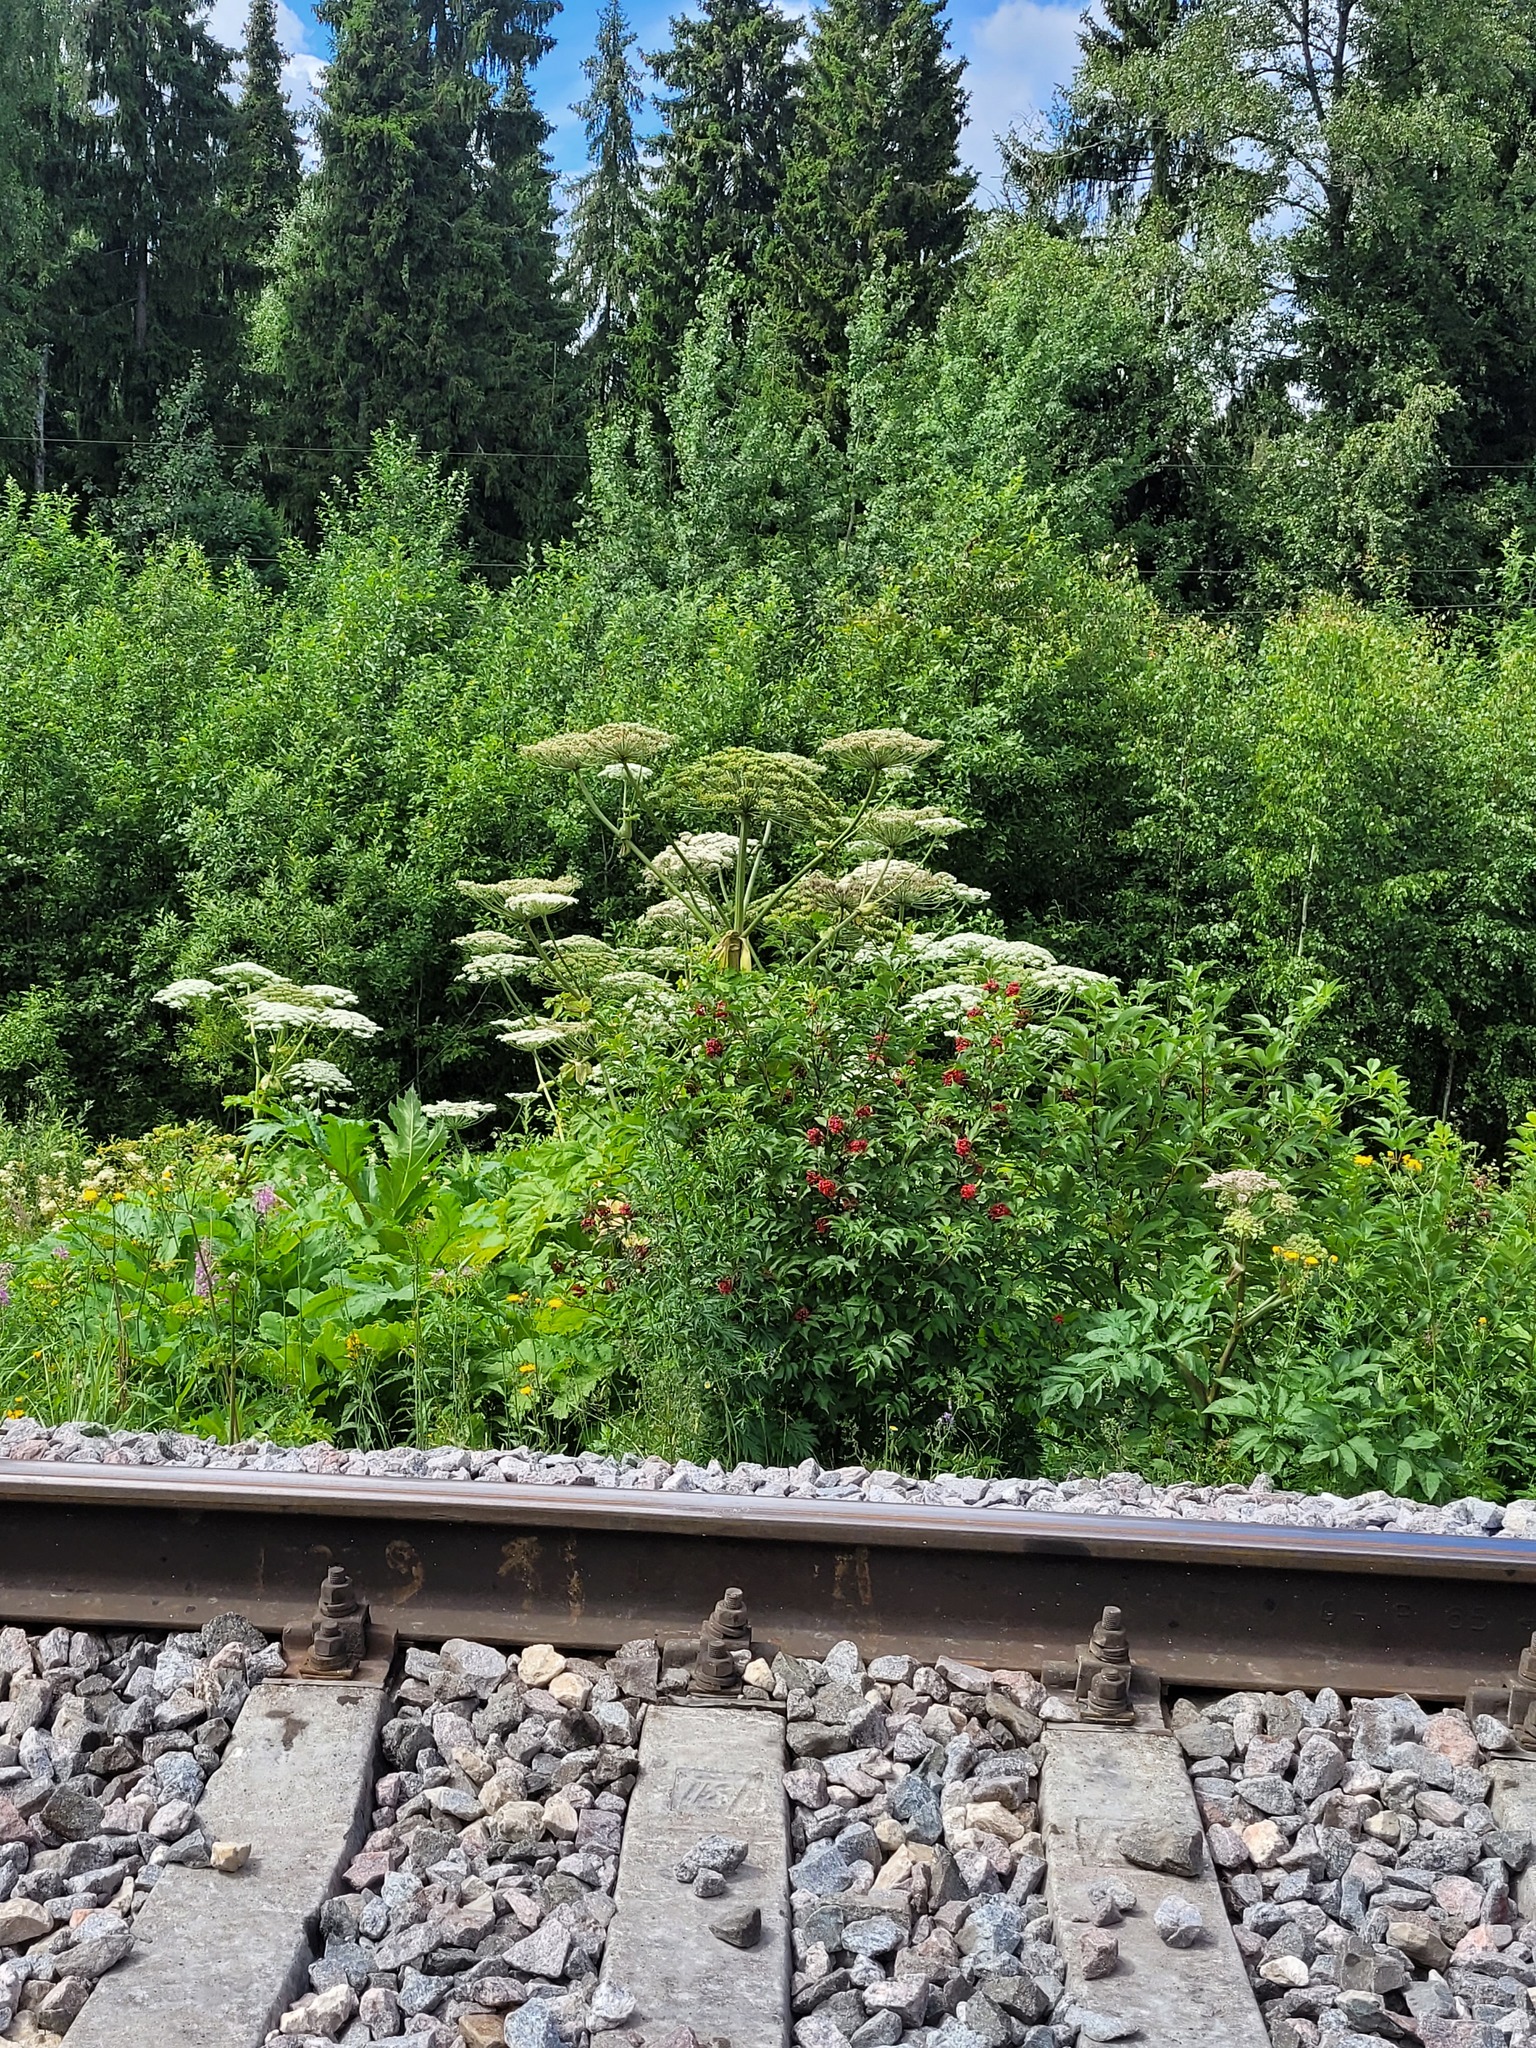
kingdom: Plantae
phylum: Tracheophyta
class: Magnoliopsida
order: Dipsacales
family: Viburnaceae
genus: Sambucus
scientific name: Sambucus racemosa
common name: Red-berried elder
